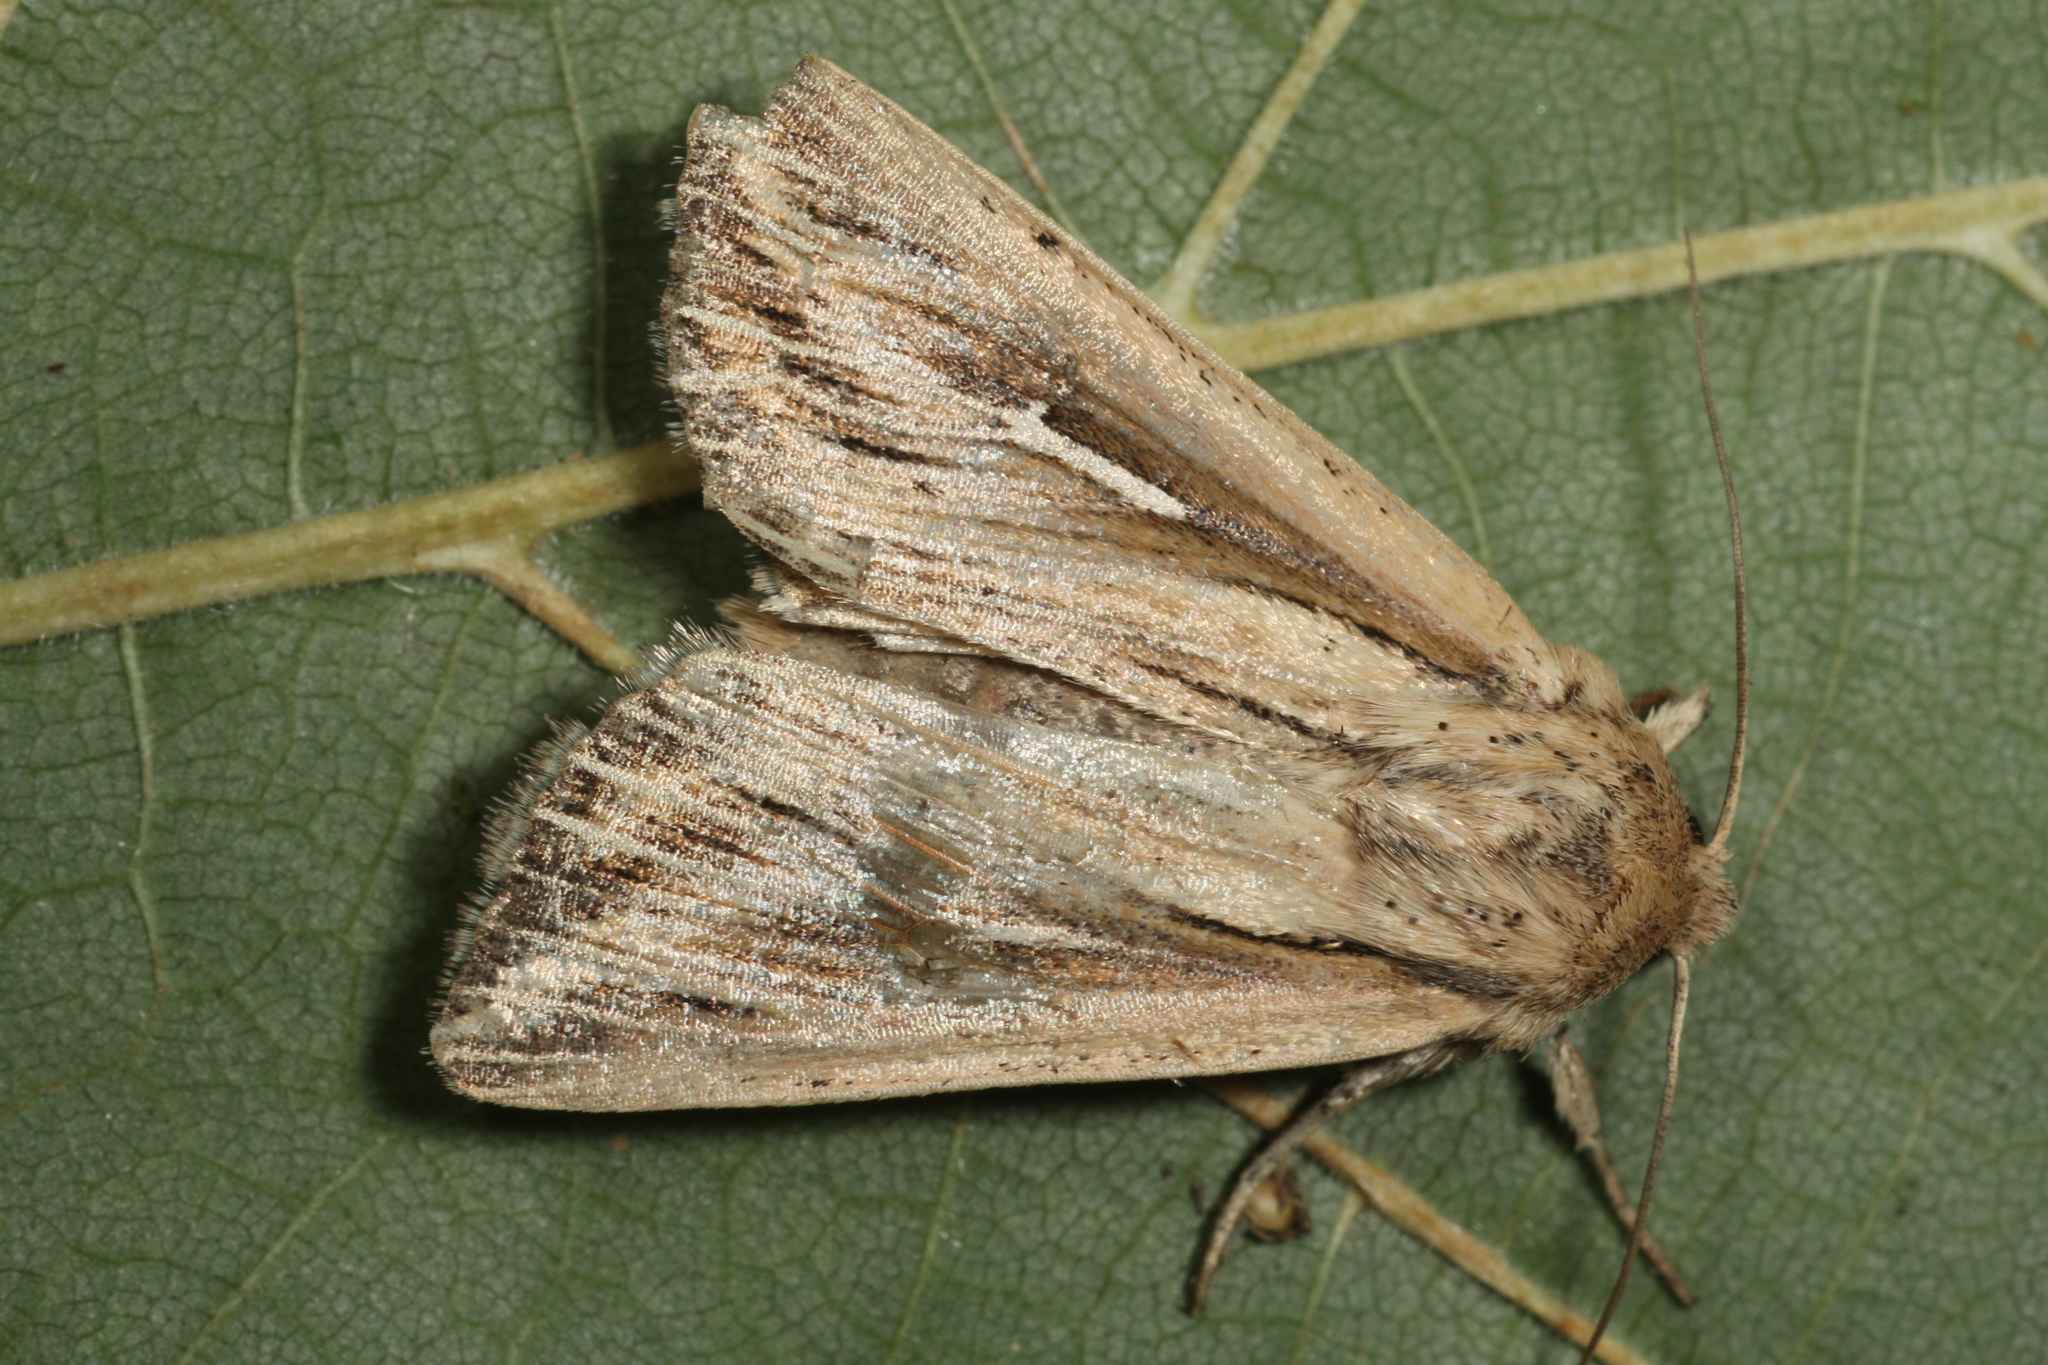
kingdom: Animalia
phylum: Arthropoda
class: Insecta
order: Lepidoptera
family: Noctuidae
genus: Mythimna
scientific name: Mythimna l-album
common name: L-album wainscot
